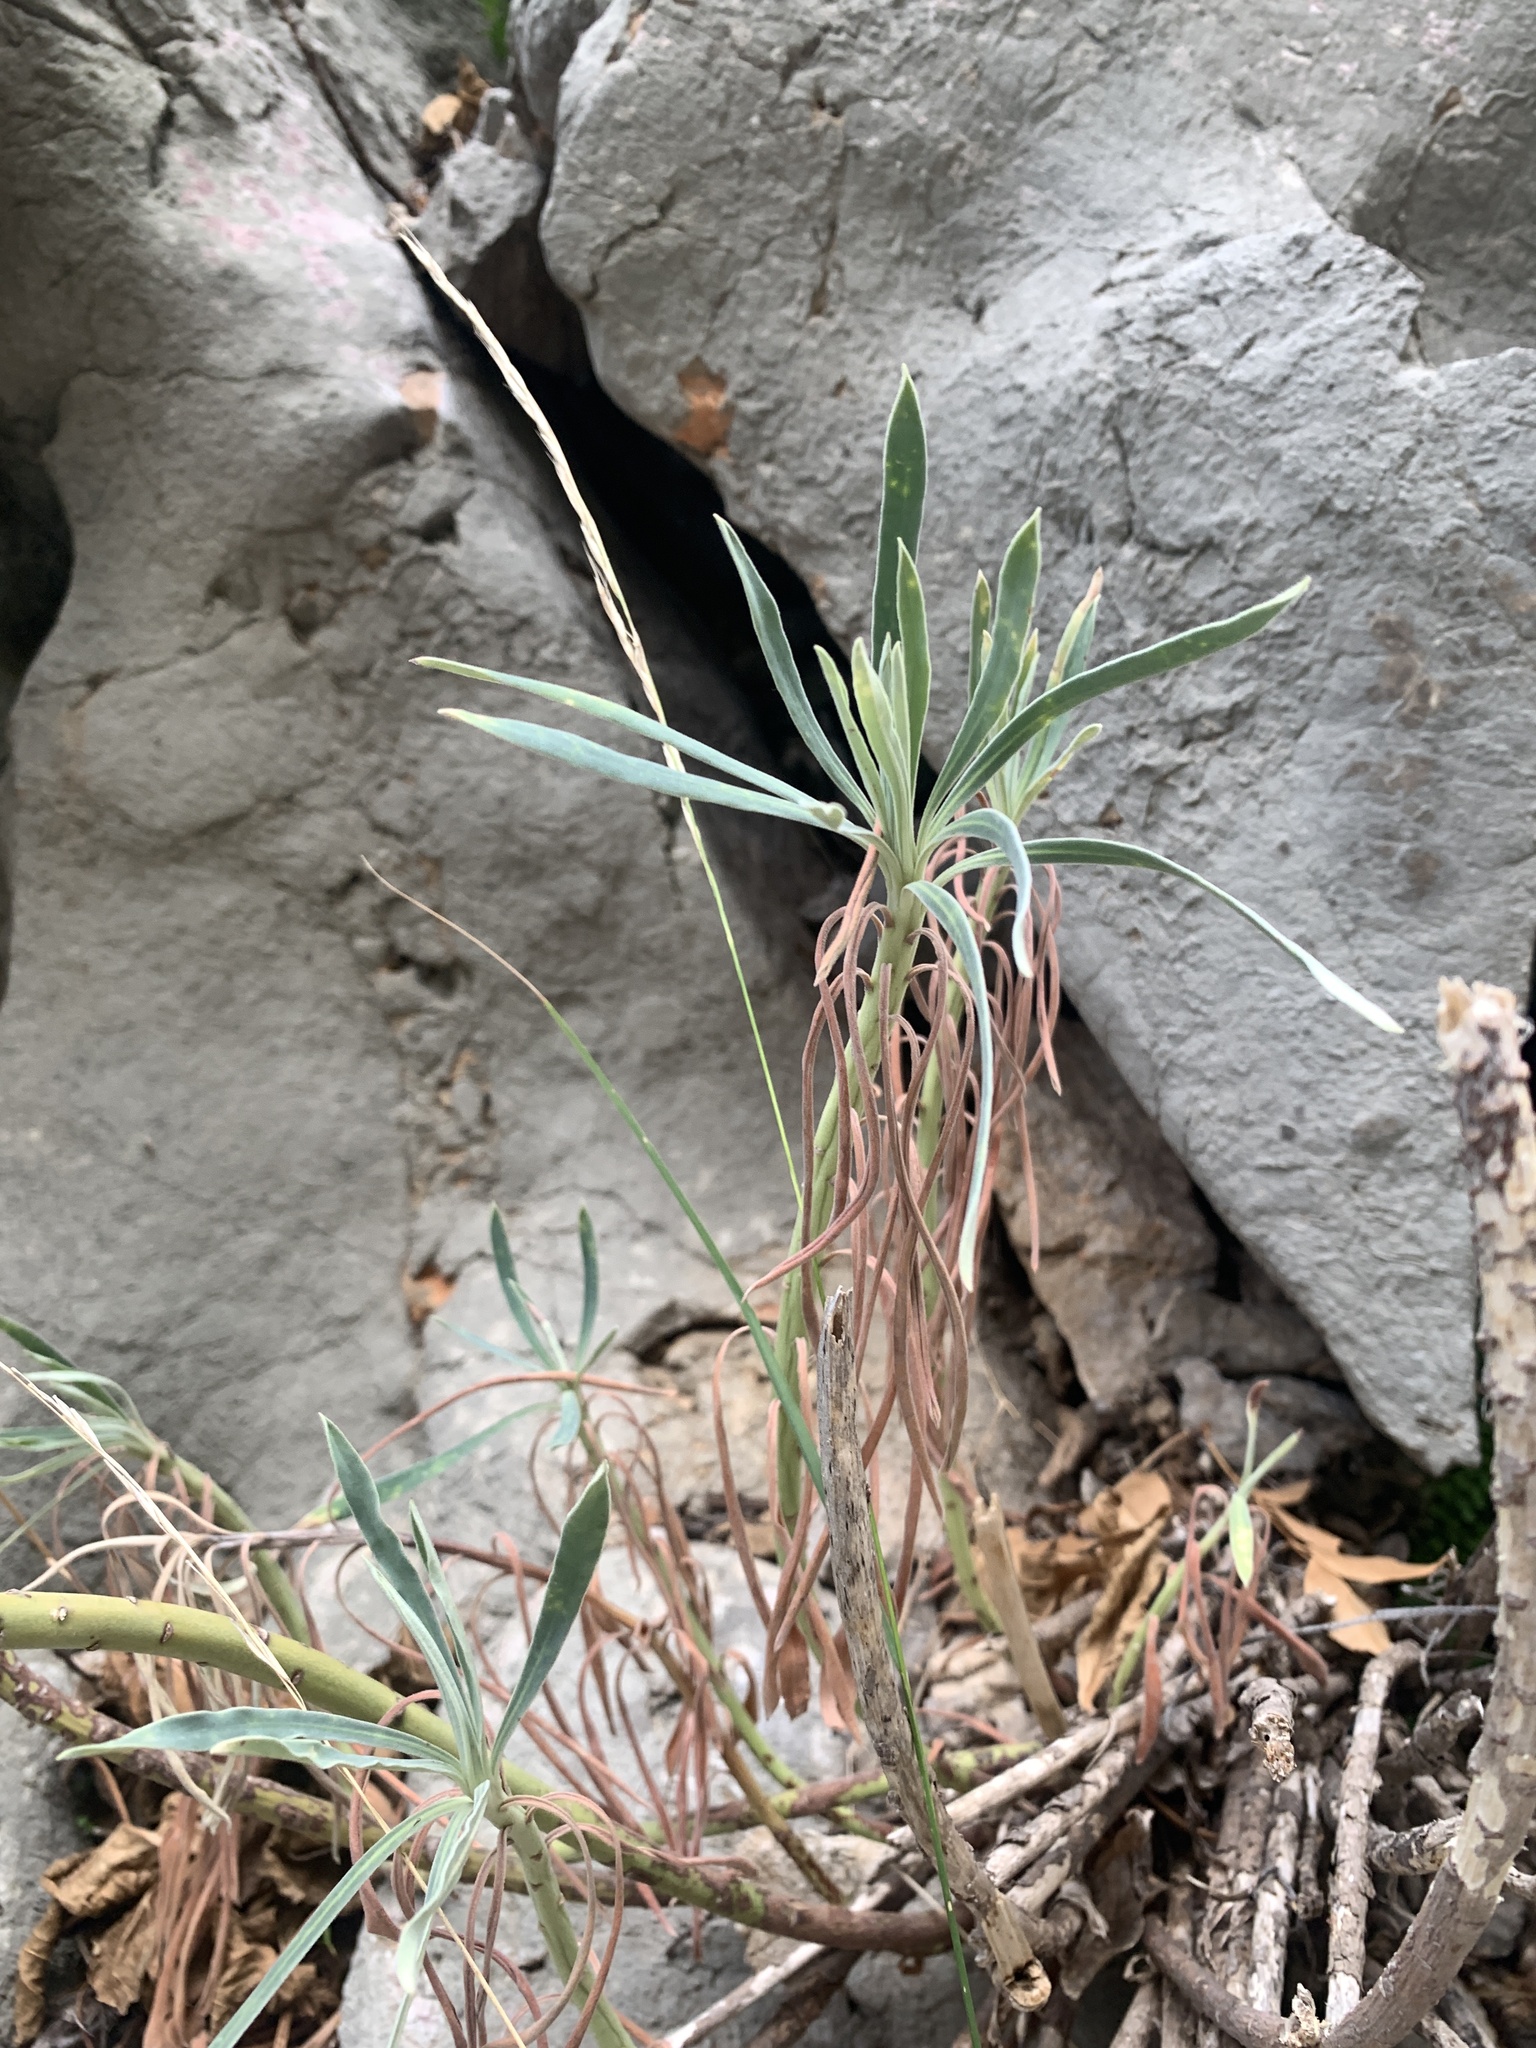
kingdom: Plantae
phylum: Tracheophyta
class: Magnoliopsida
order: Malpighiales
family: Euphorbiaceae
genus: Euphorbia
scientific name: Euphorbia characias
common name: Mediterranean spurge
